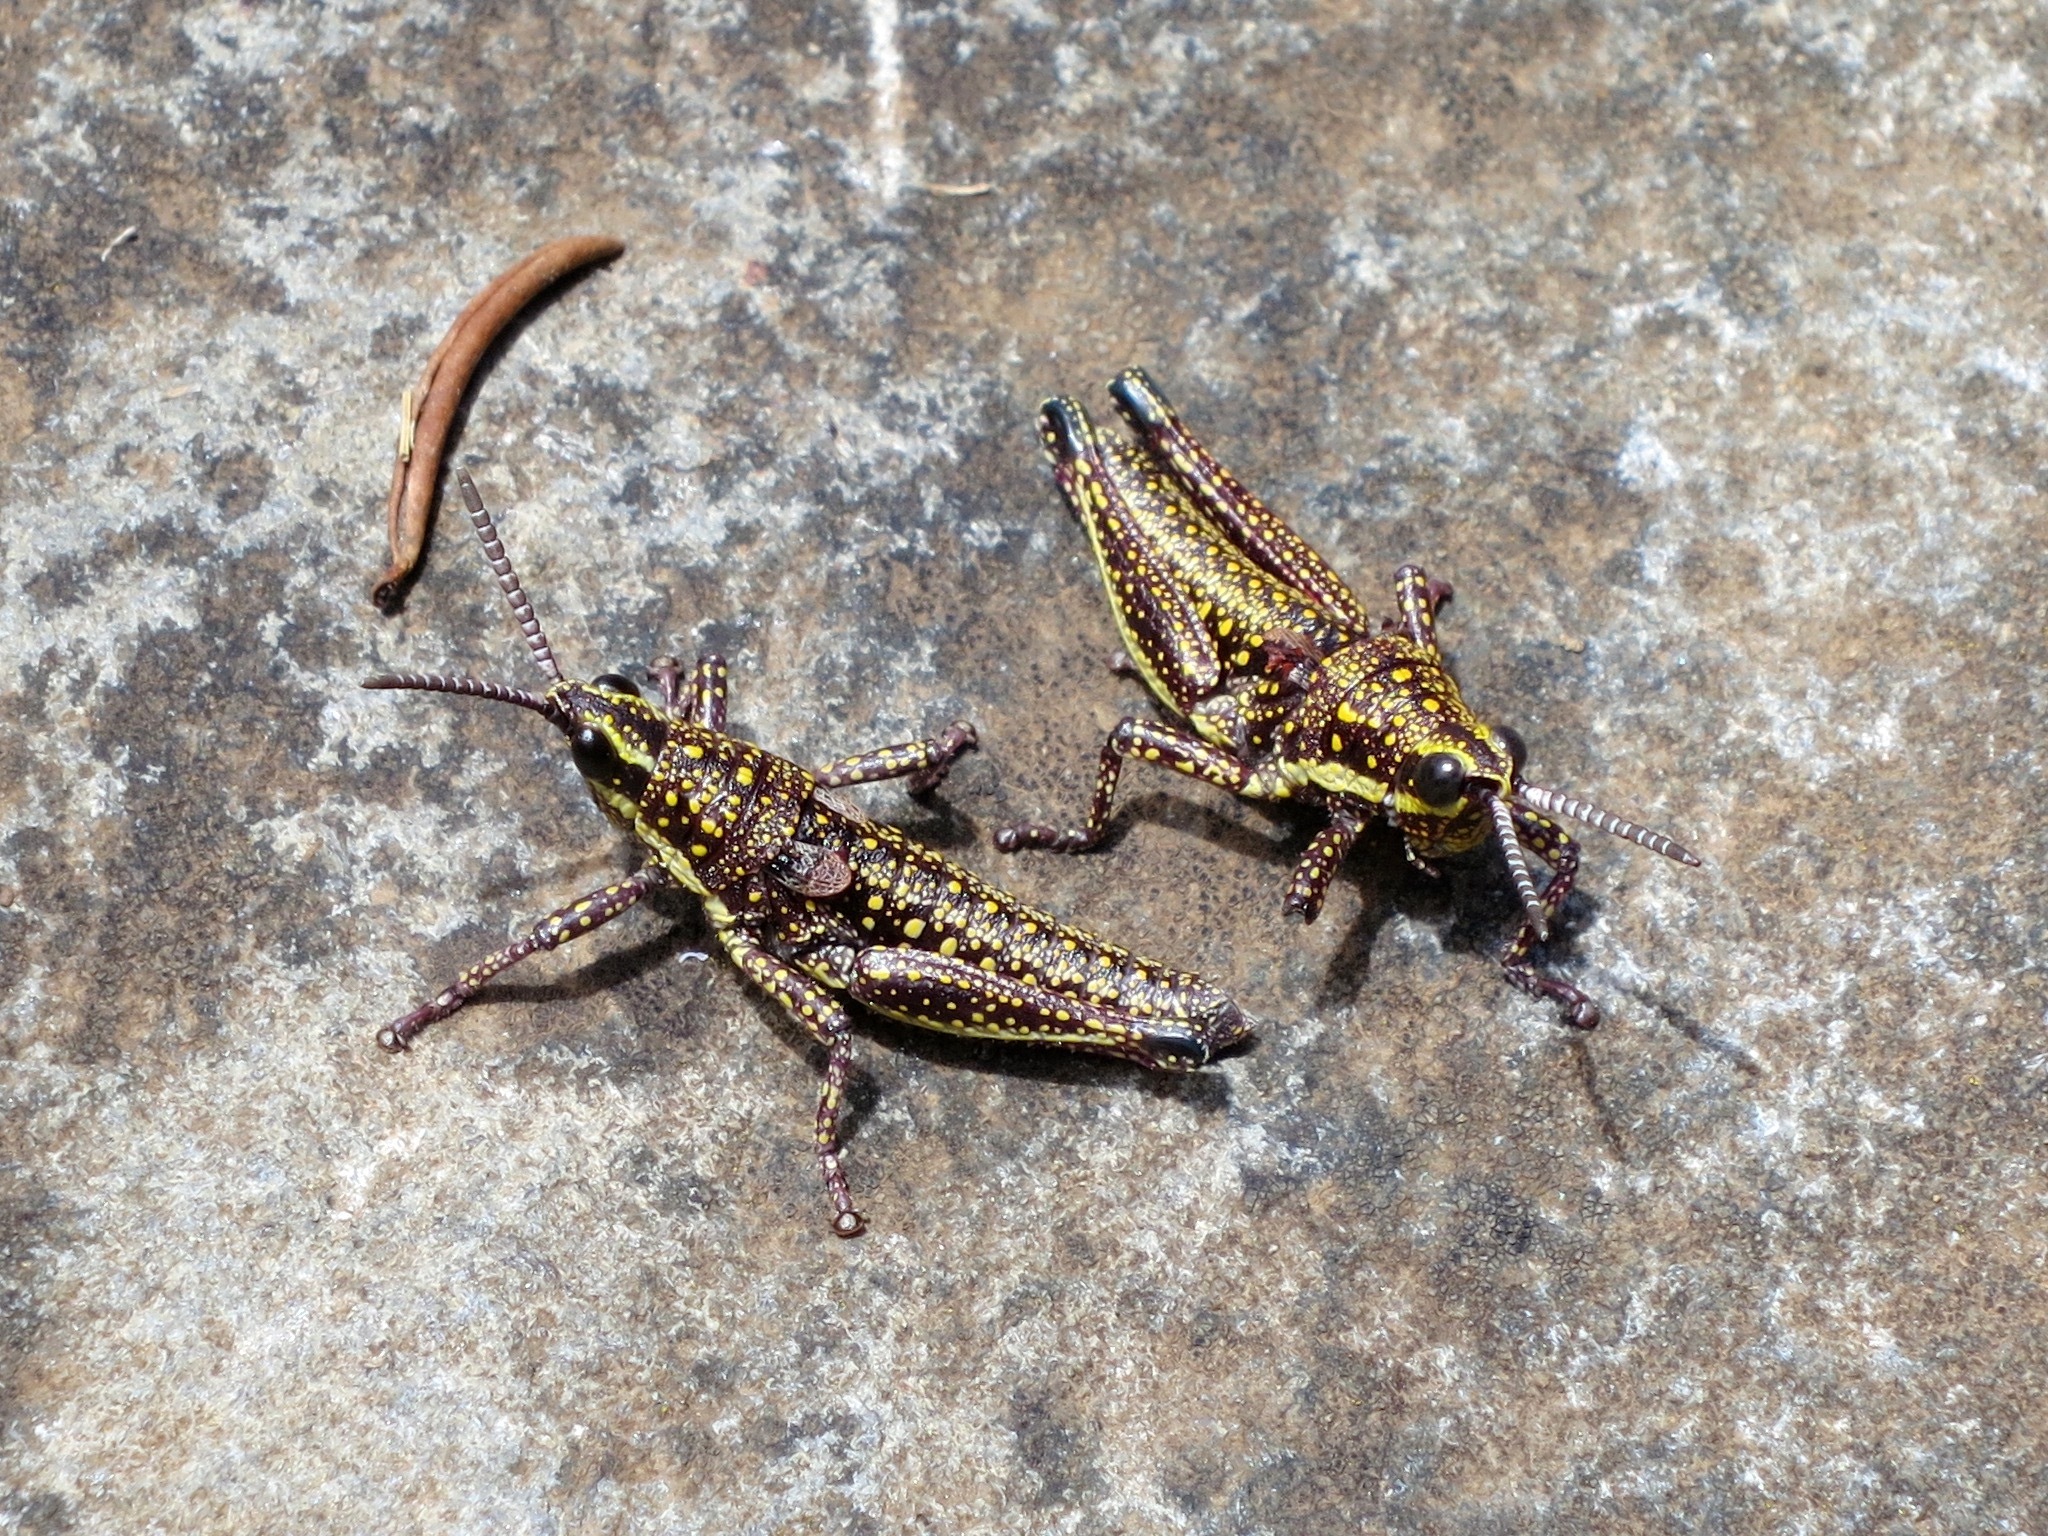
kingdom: Animalia
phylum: Arthropoda
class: Insecta
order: Orthoptera
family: Pyrgomorphidae
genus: Monistria
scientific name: Monistria concinna
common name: Southern pyrgomorph
